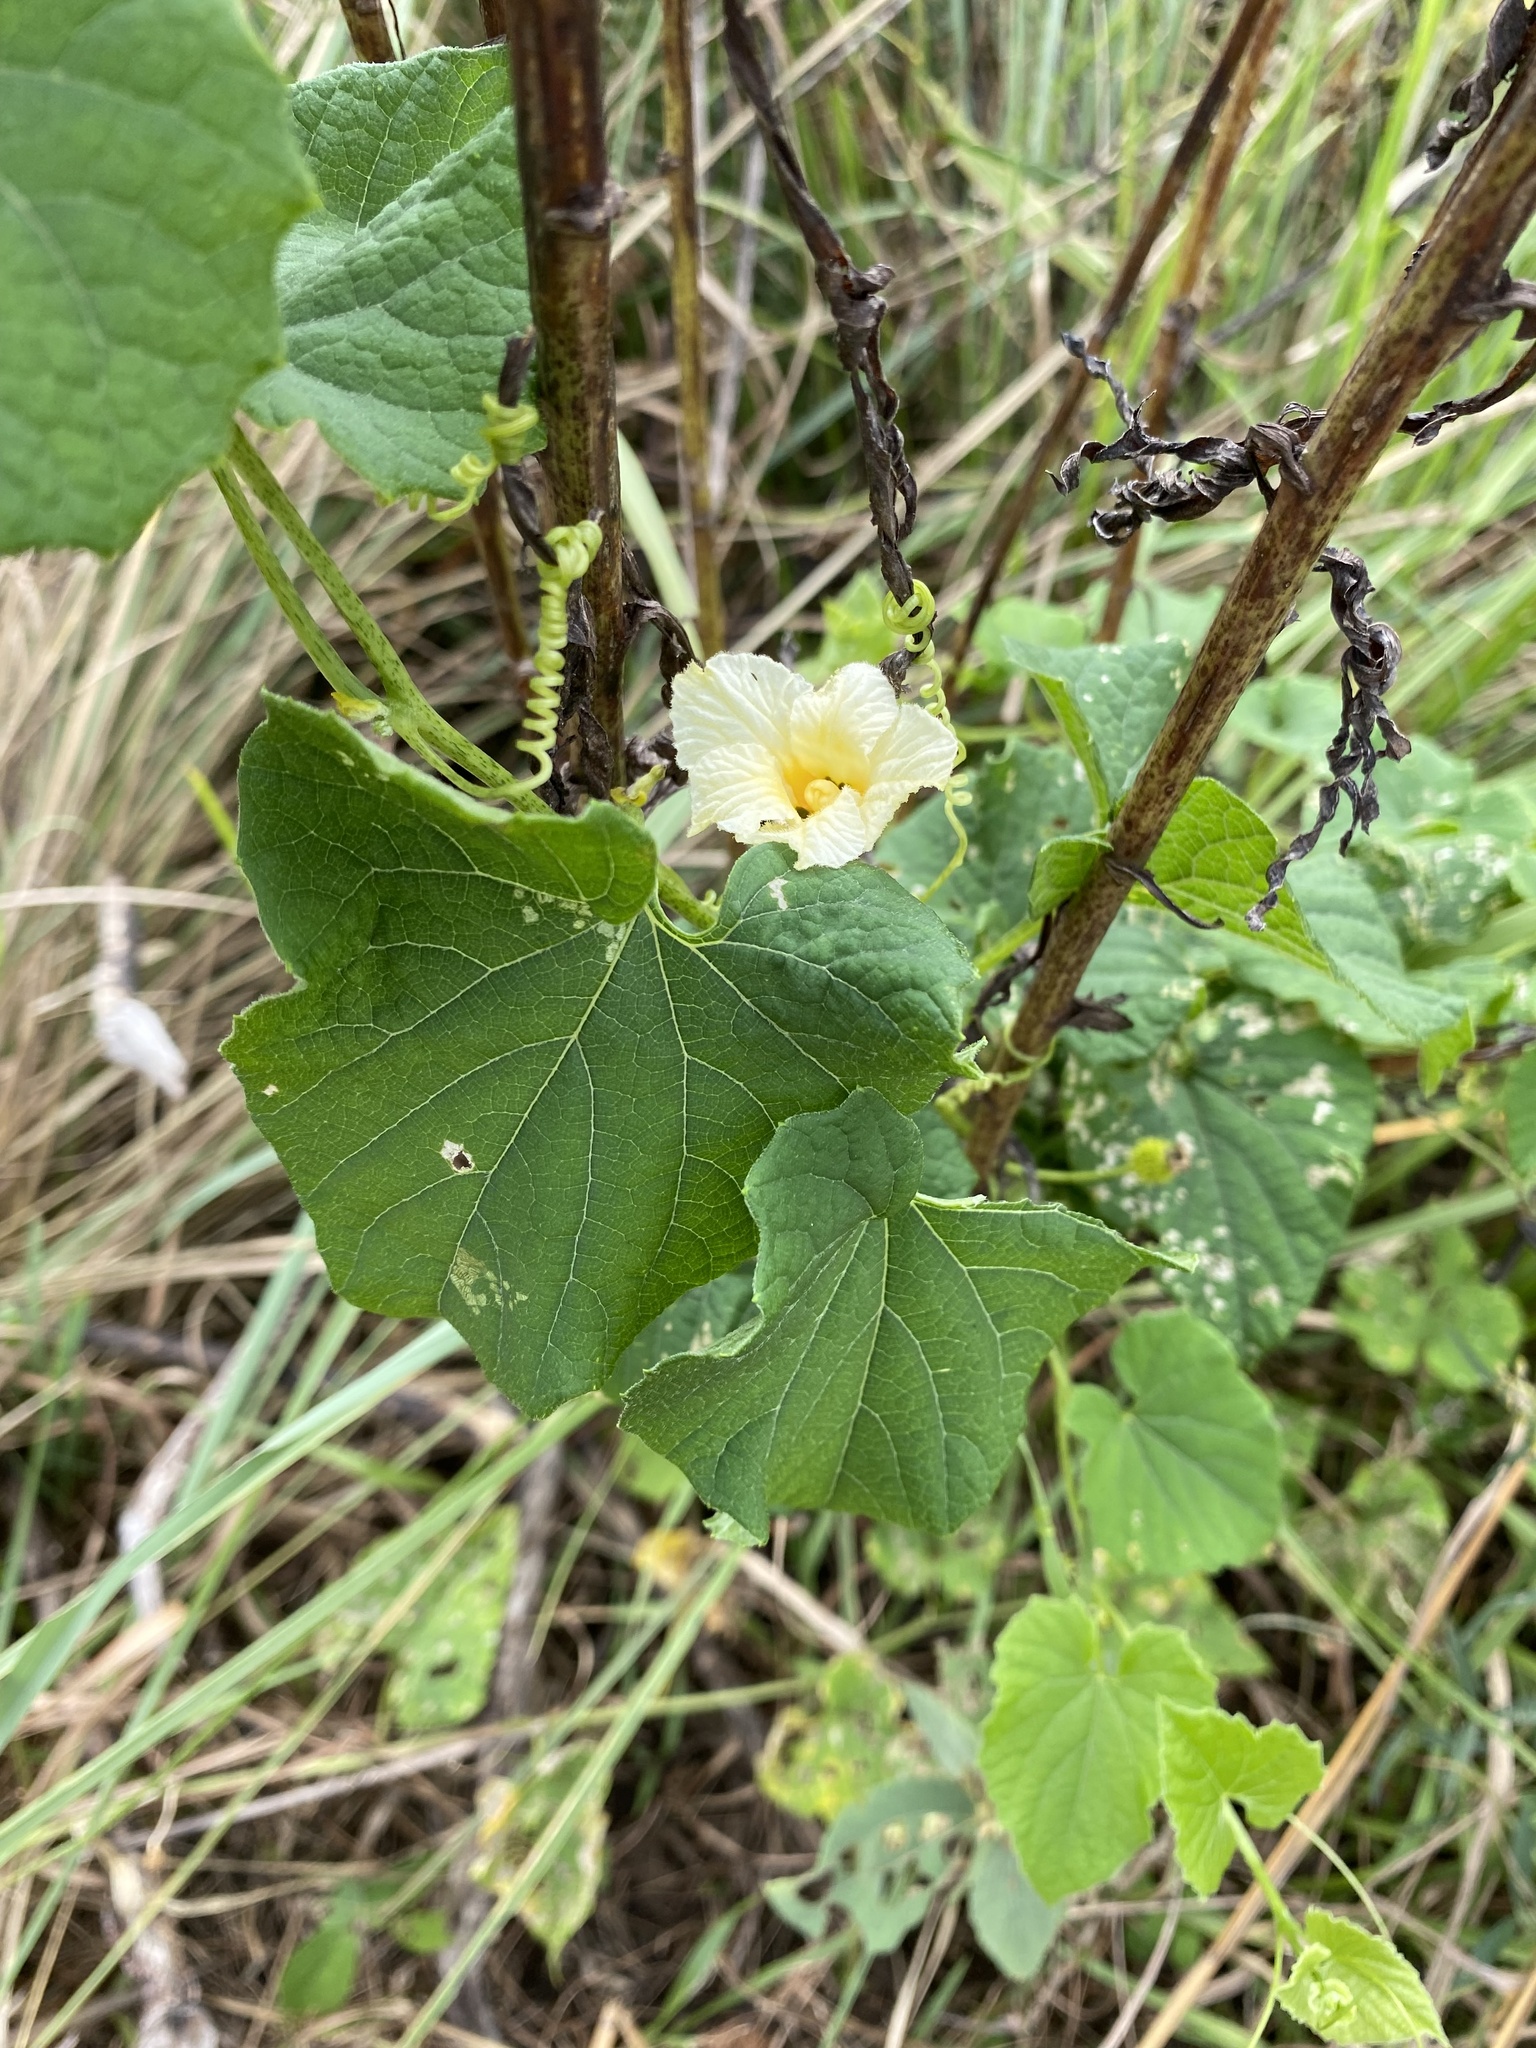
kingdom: Plantae
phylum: Tracheophyta
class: Magnoliopsida
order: Cucurbitales
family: Cucurbitaceae
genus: Momordica
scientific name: Momordica foetida
